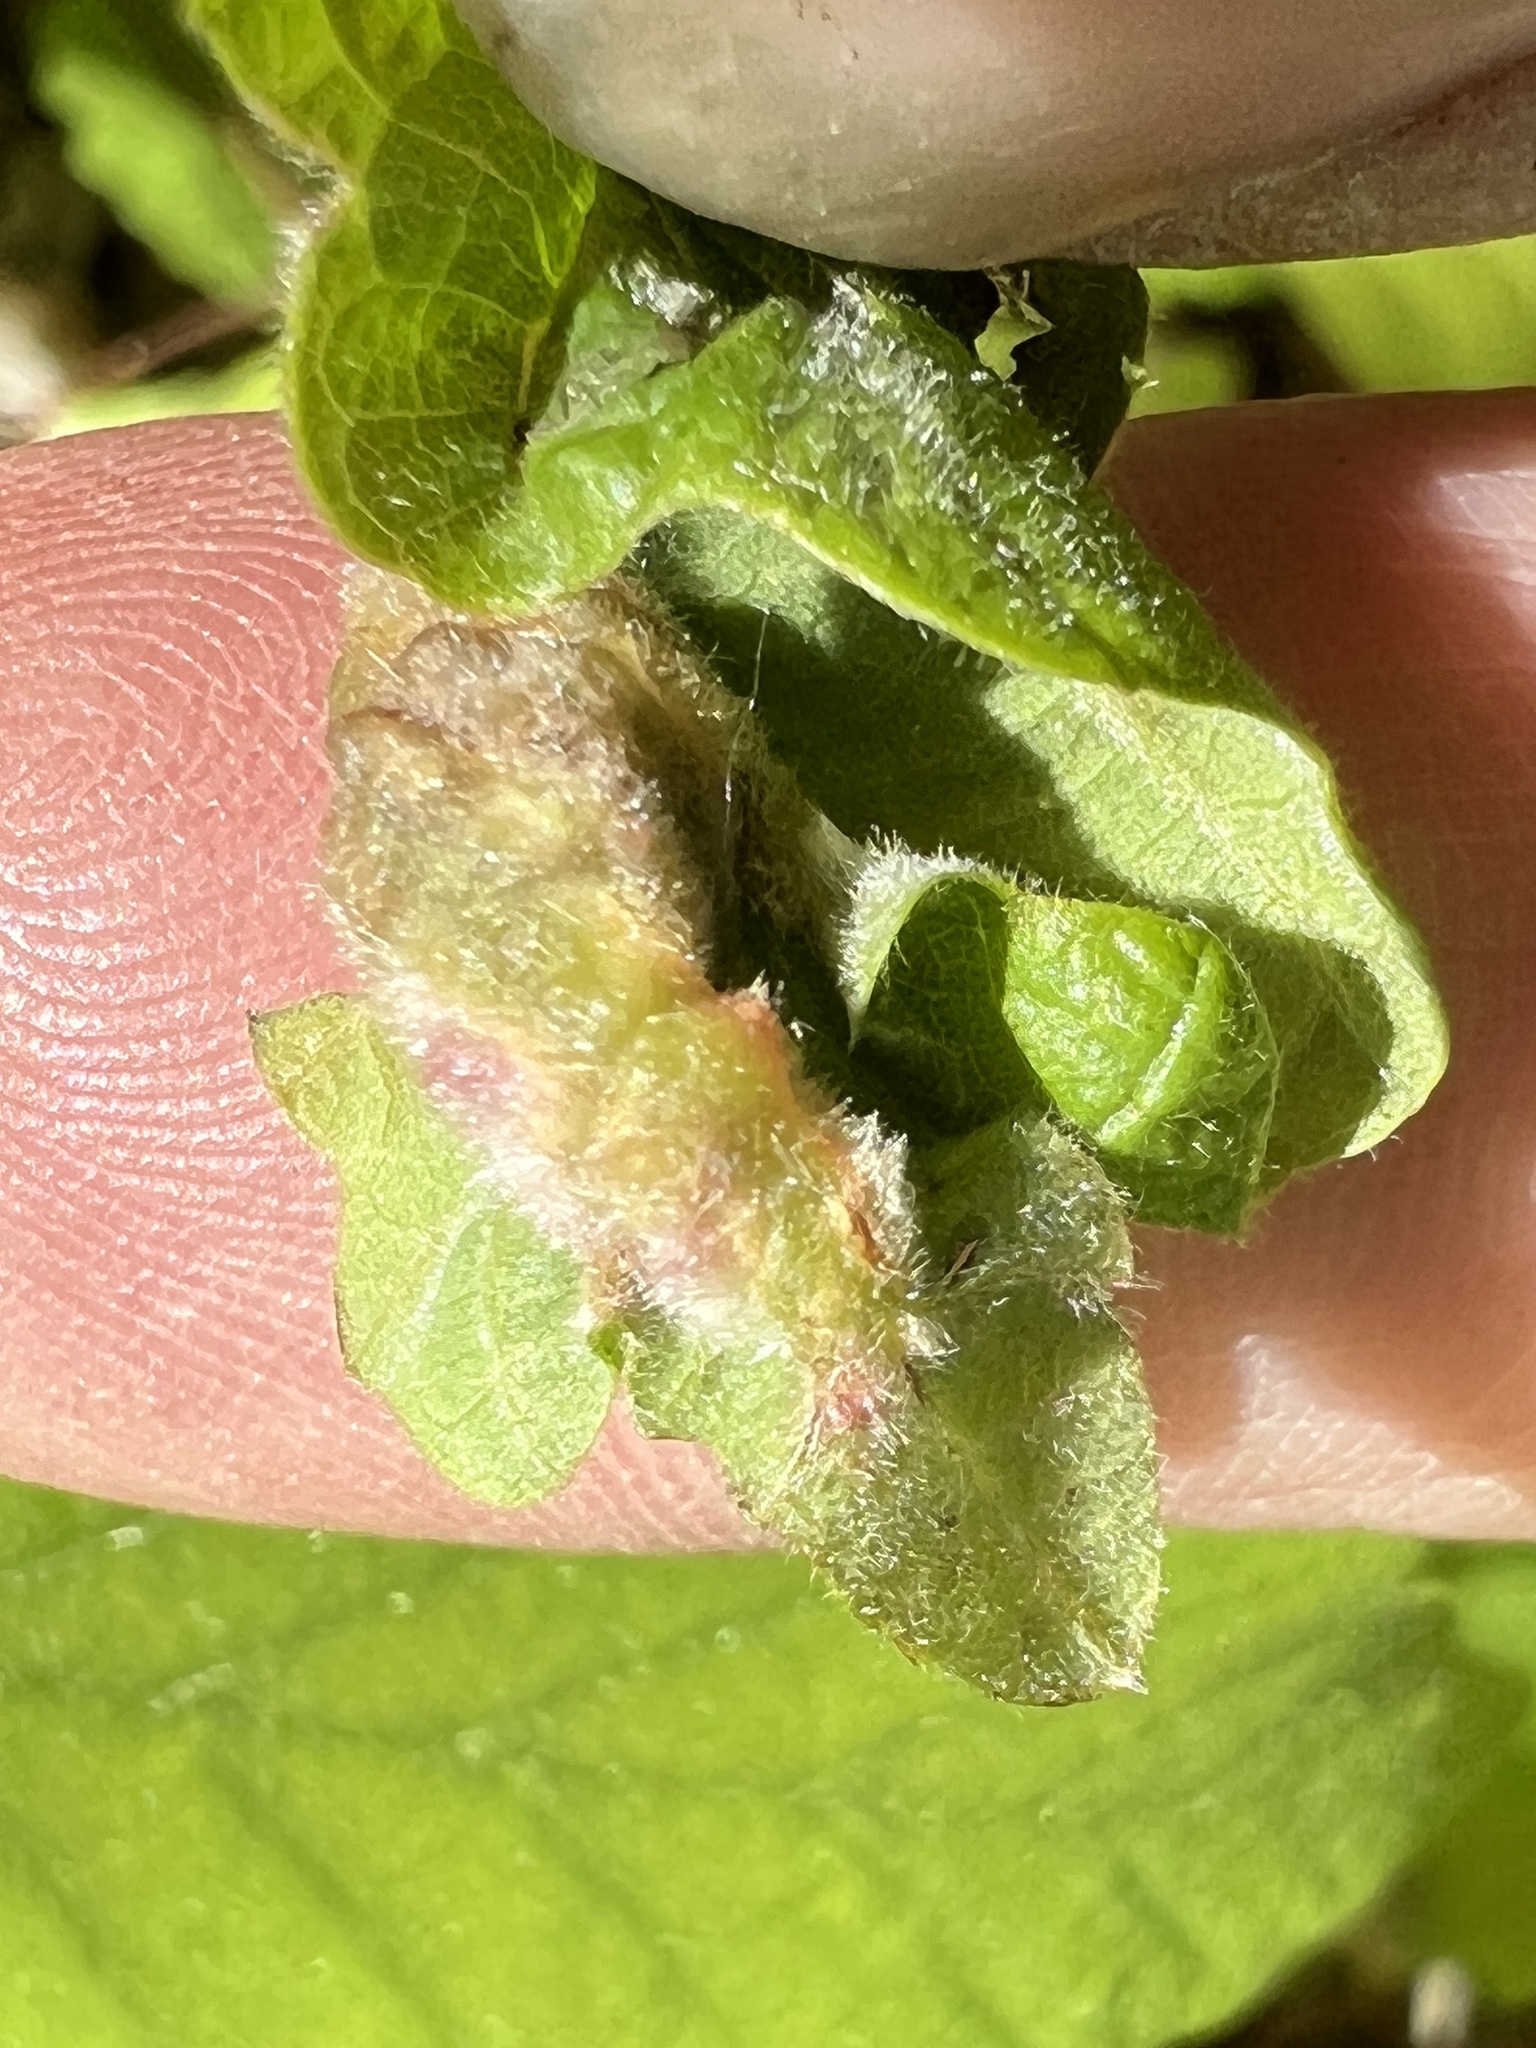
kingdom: Animalia
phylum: Arthropoda
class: Insecta
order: Diptera
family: Cecidomyiidae
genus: Macrodiplosis
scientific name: Macrodiplosis niveipila
